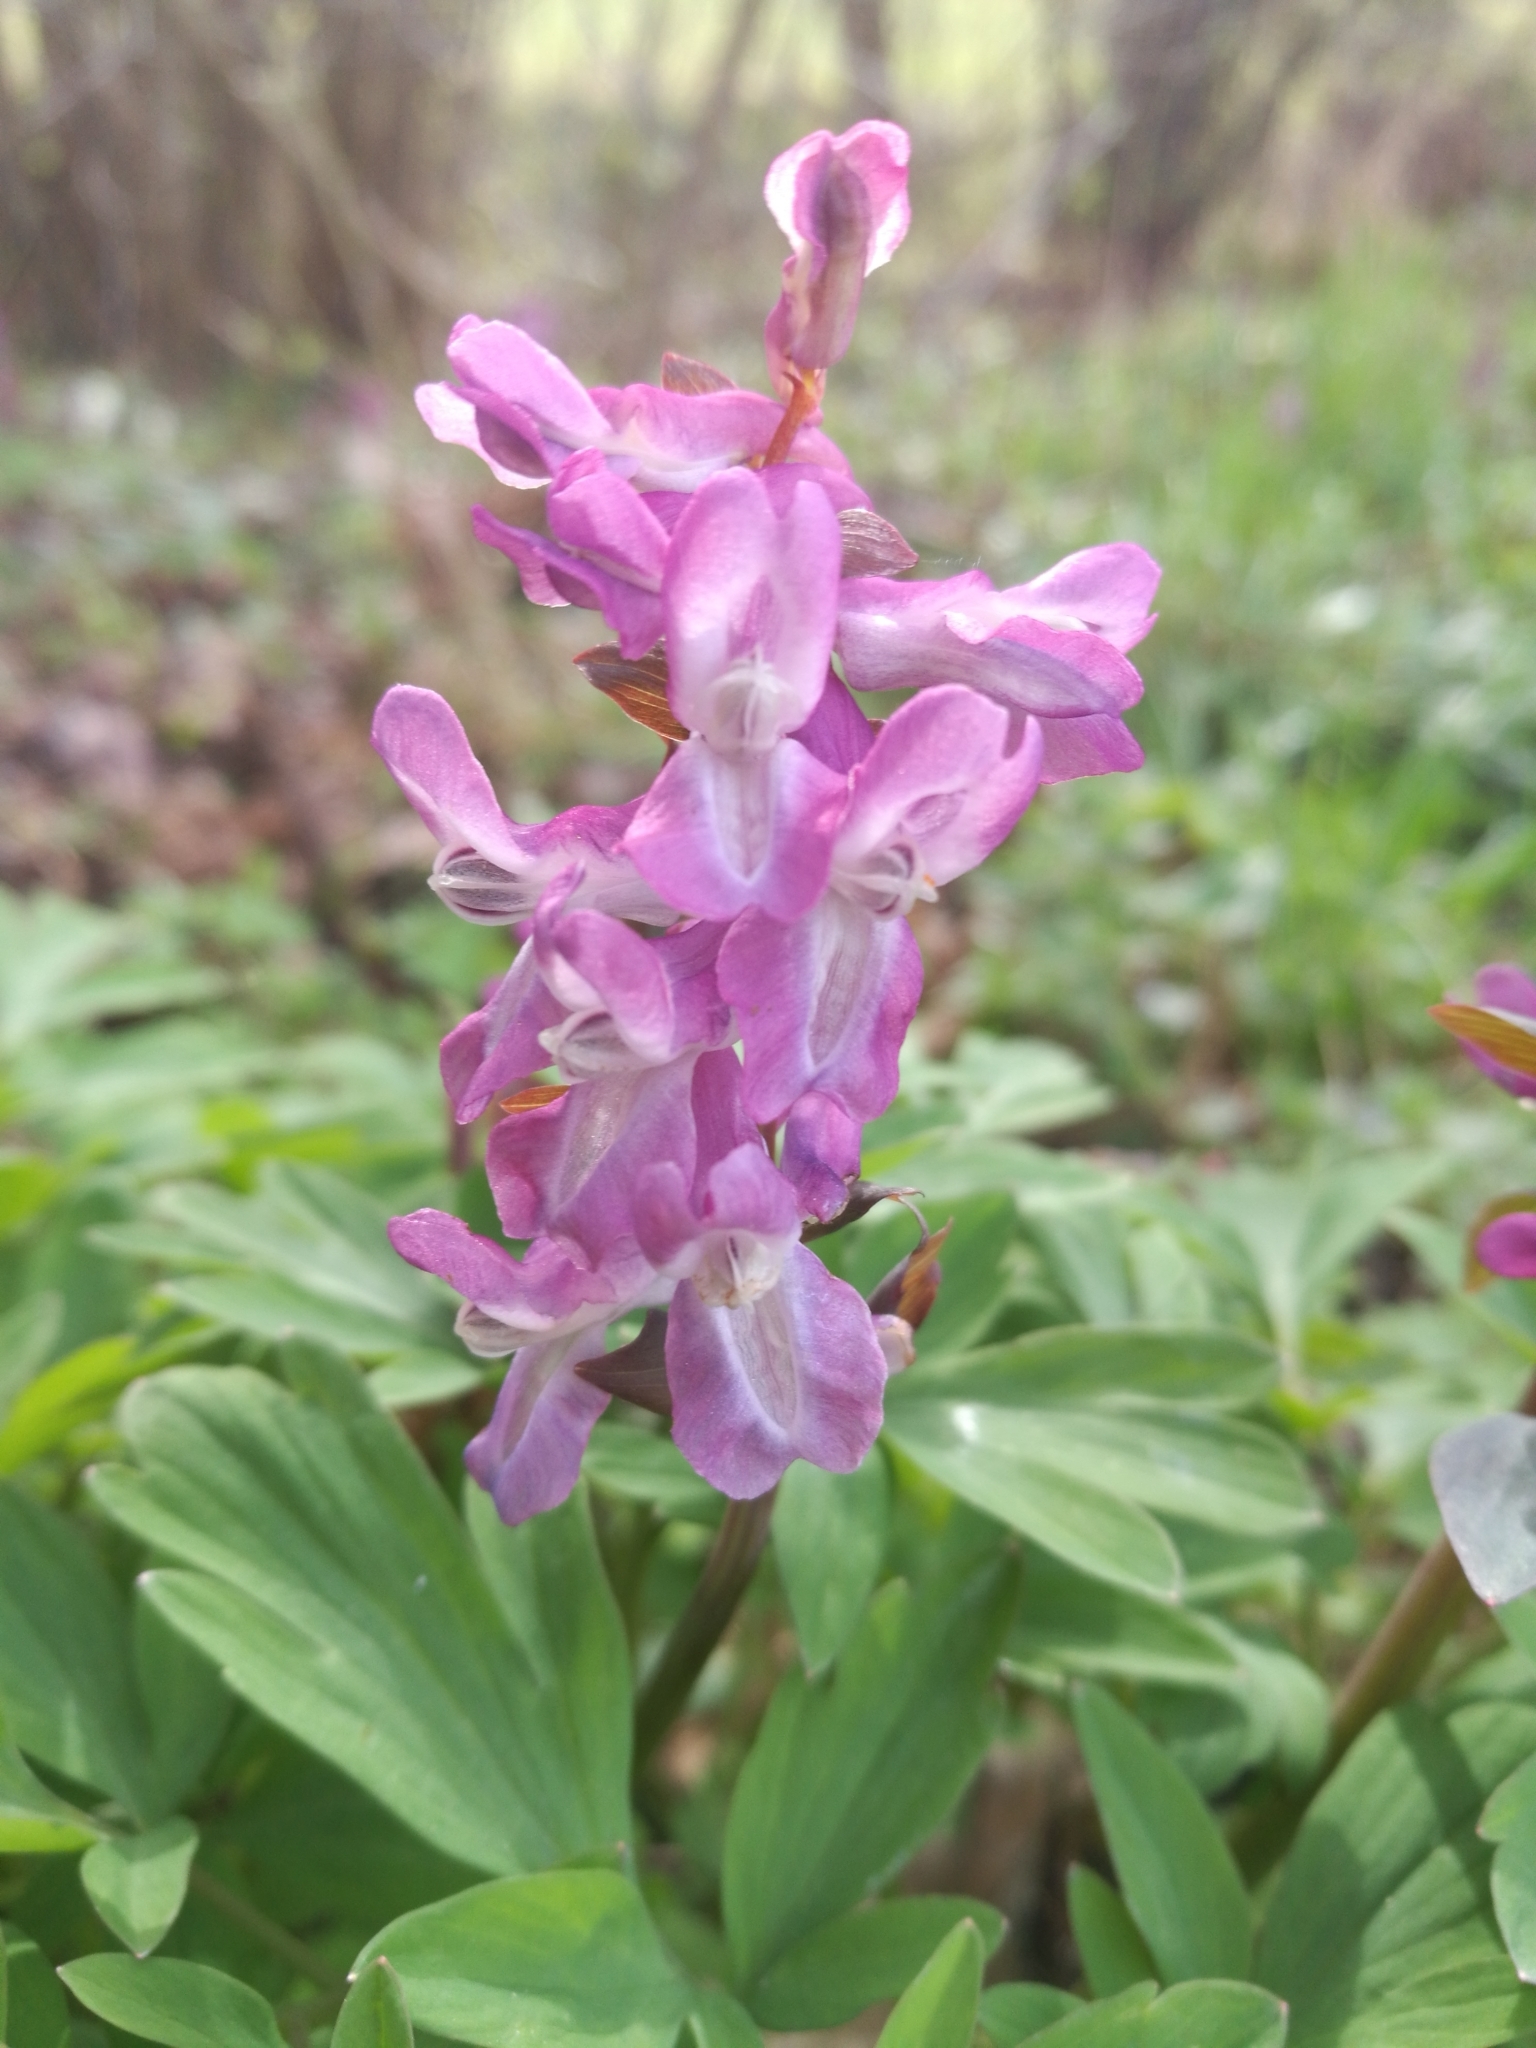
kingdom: Plantae
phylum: Tracheophyta
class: Magnoliopsida
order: Ranunculales
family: Papaveraceae
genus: Corydalis
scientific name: Corydalis cava
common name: Hollowroot
